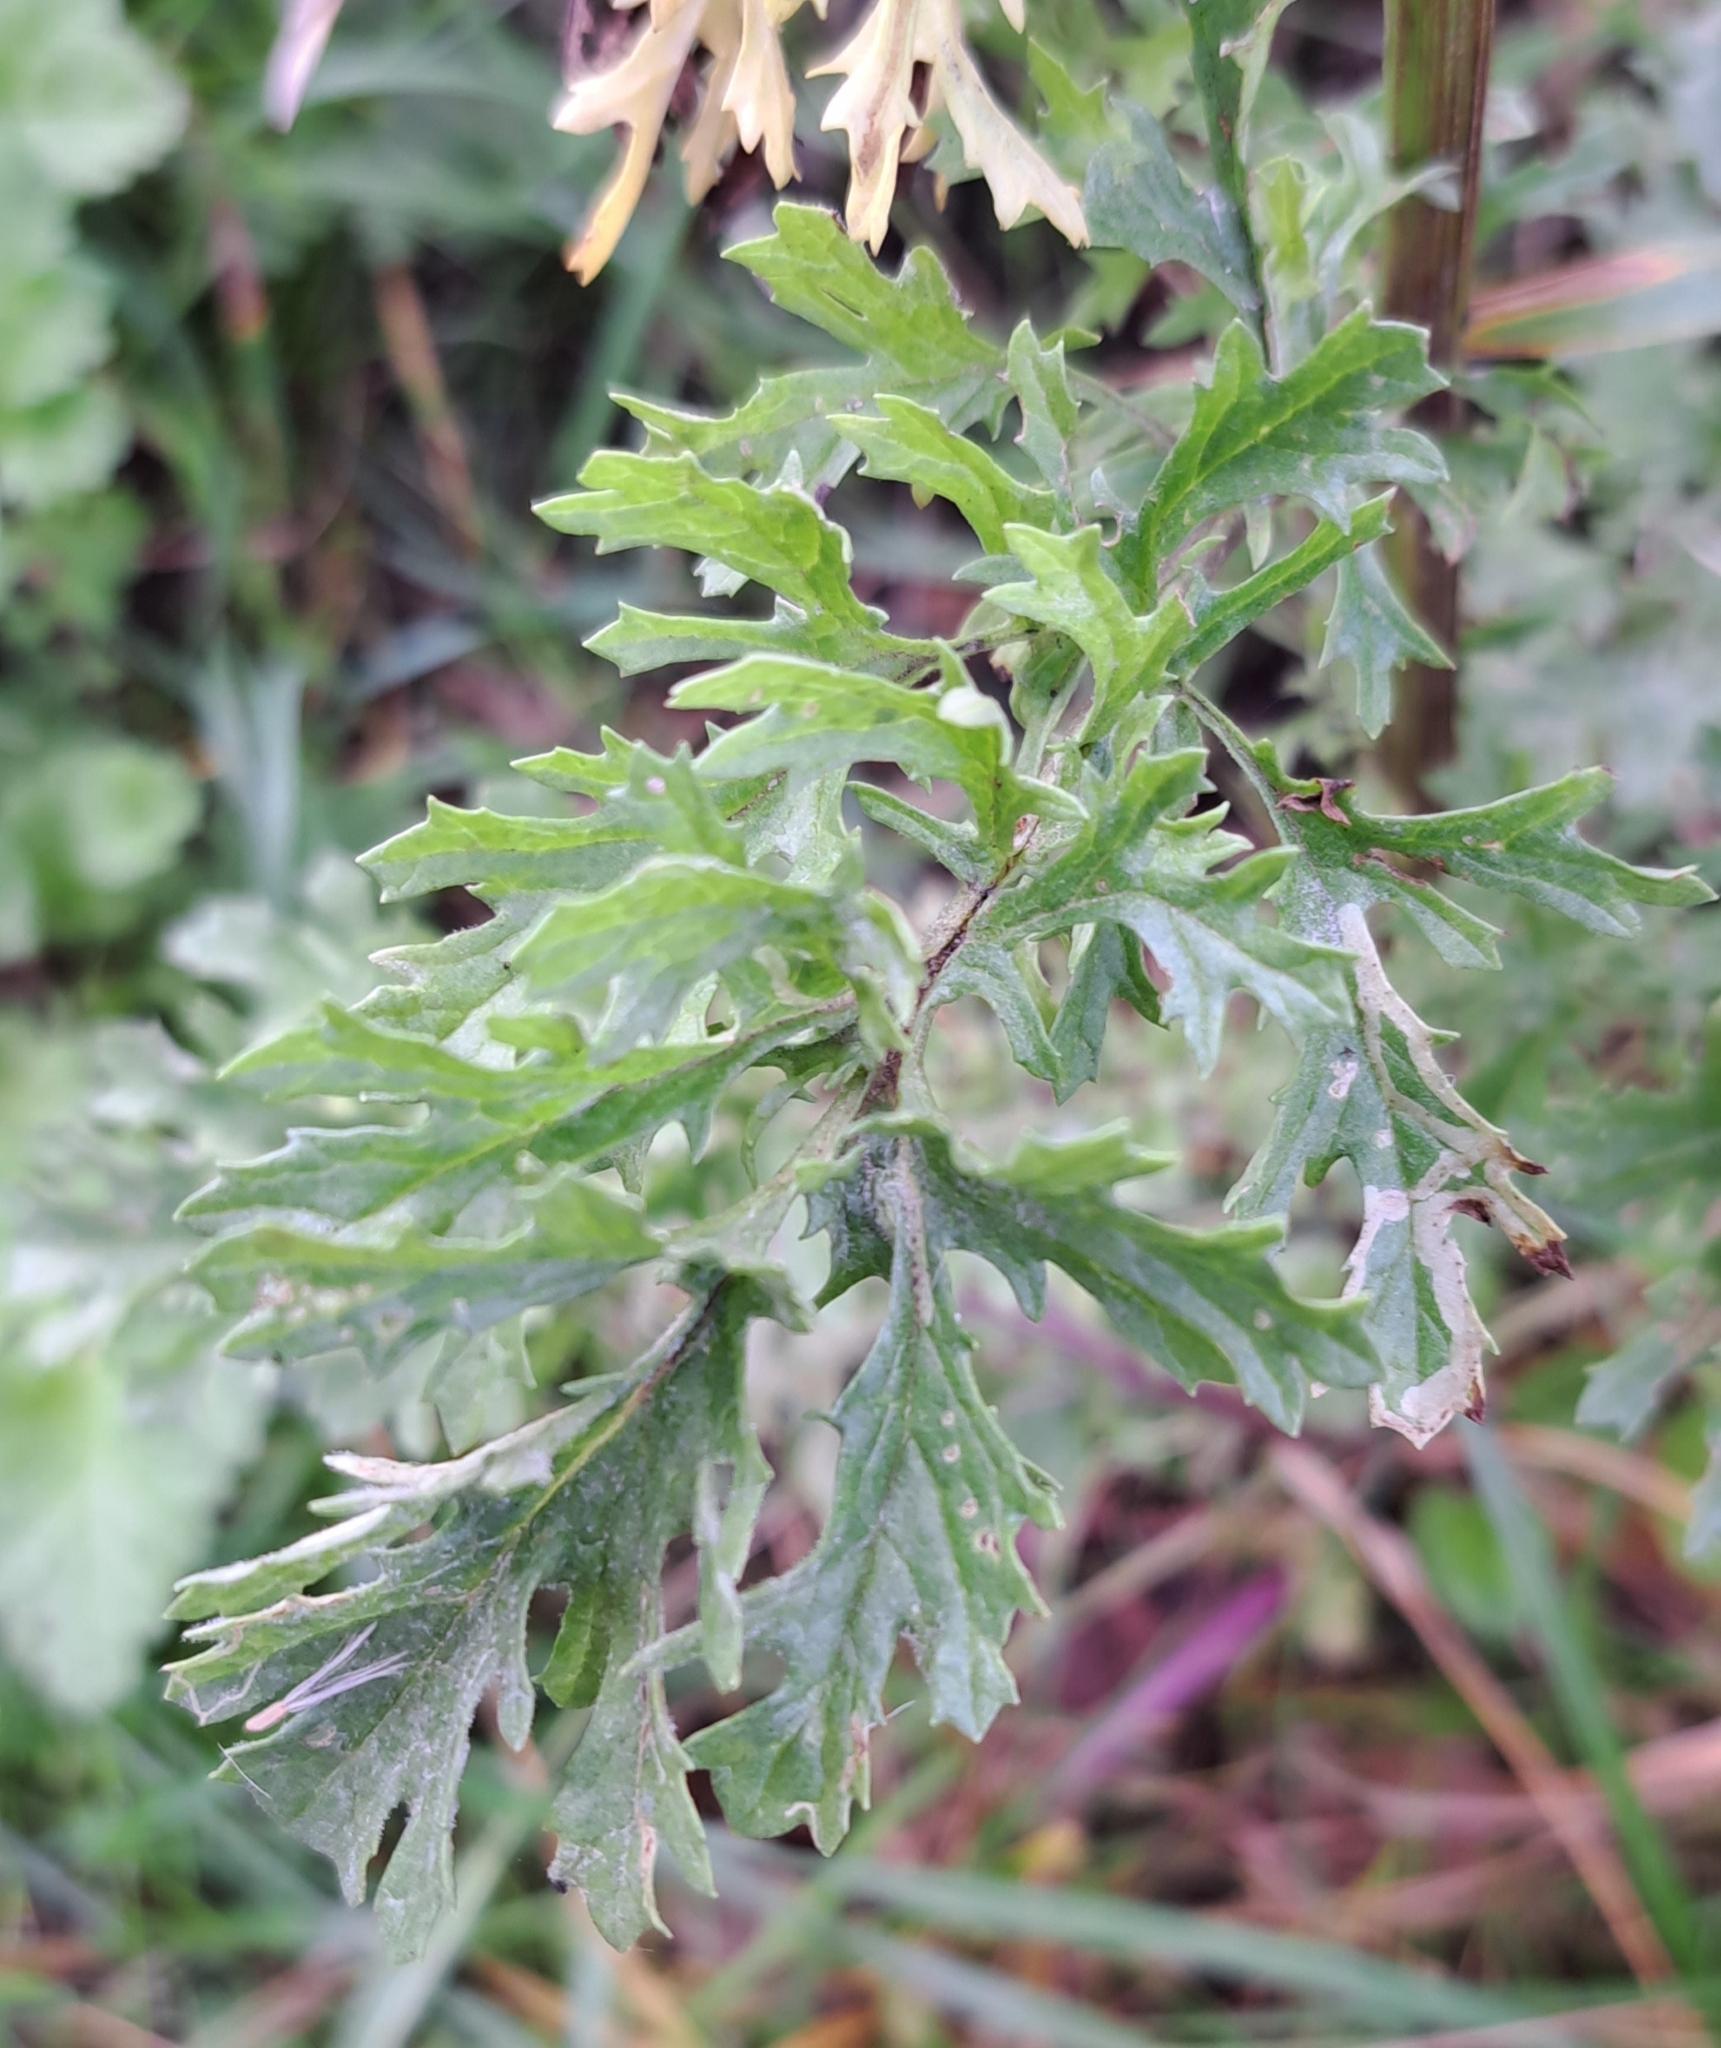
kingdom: Plantae
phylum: Tracheophyta
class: Magnoliopsida
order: Asterales
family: Asteraceae
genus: Jacobaea
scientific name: Jacobaea vulgaris
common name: Stinking willie
